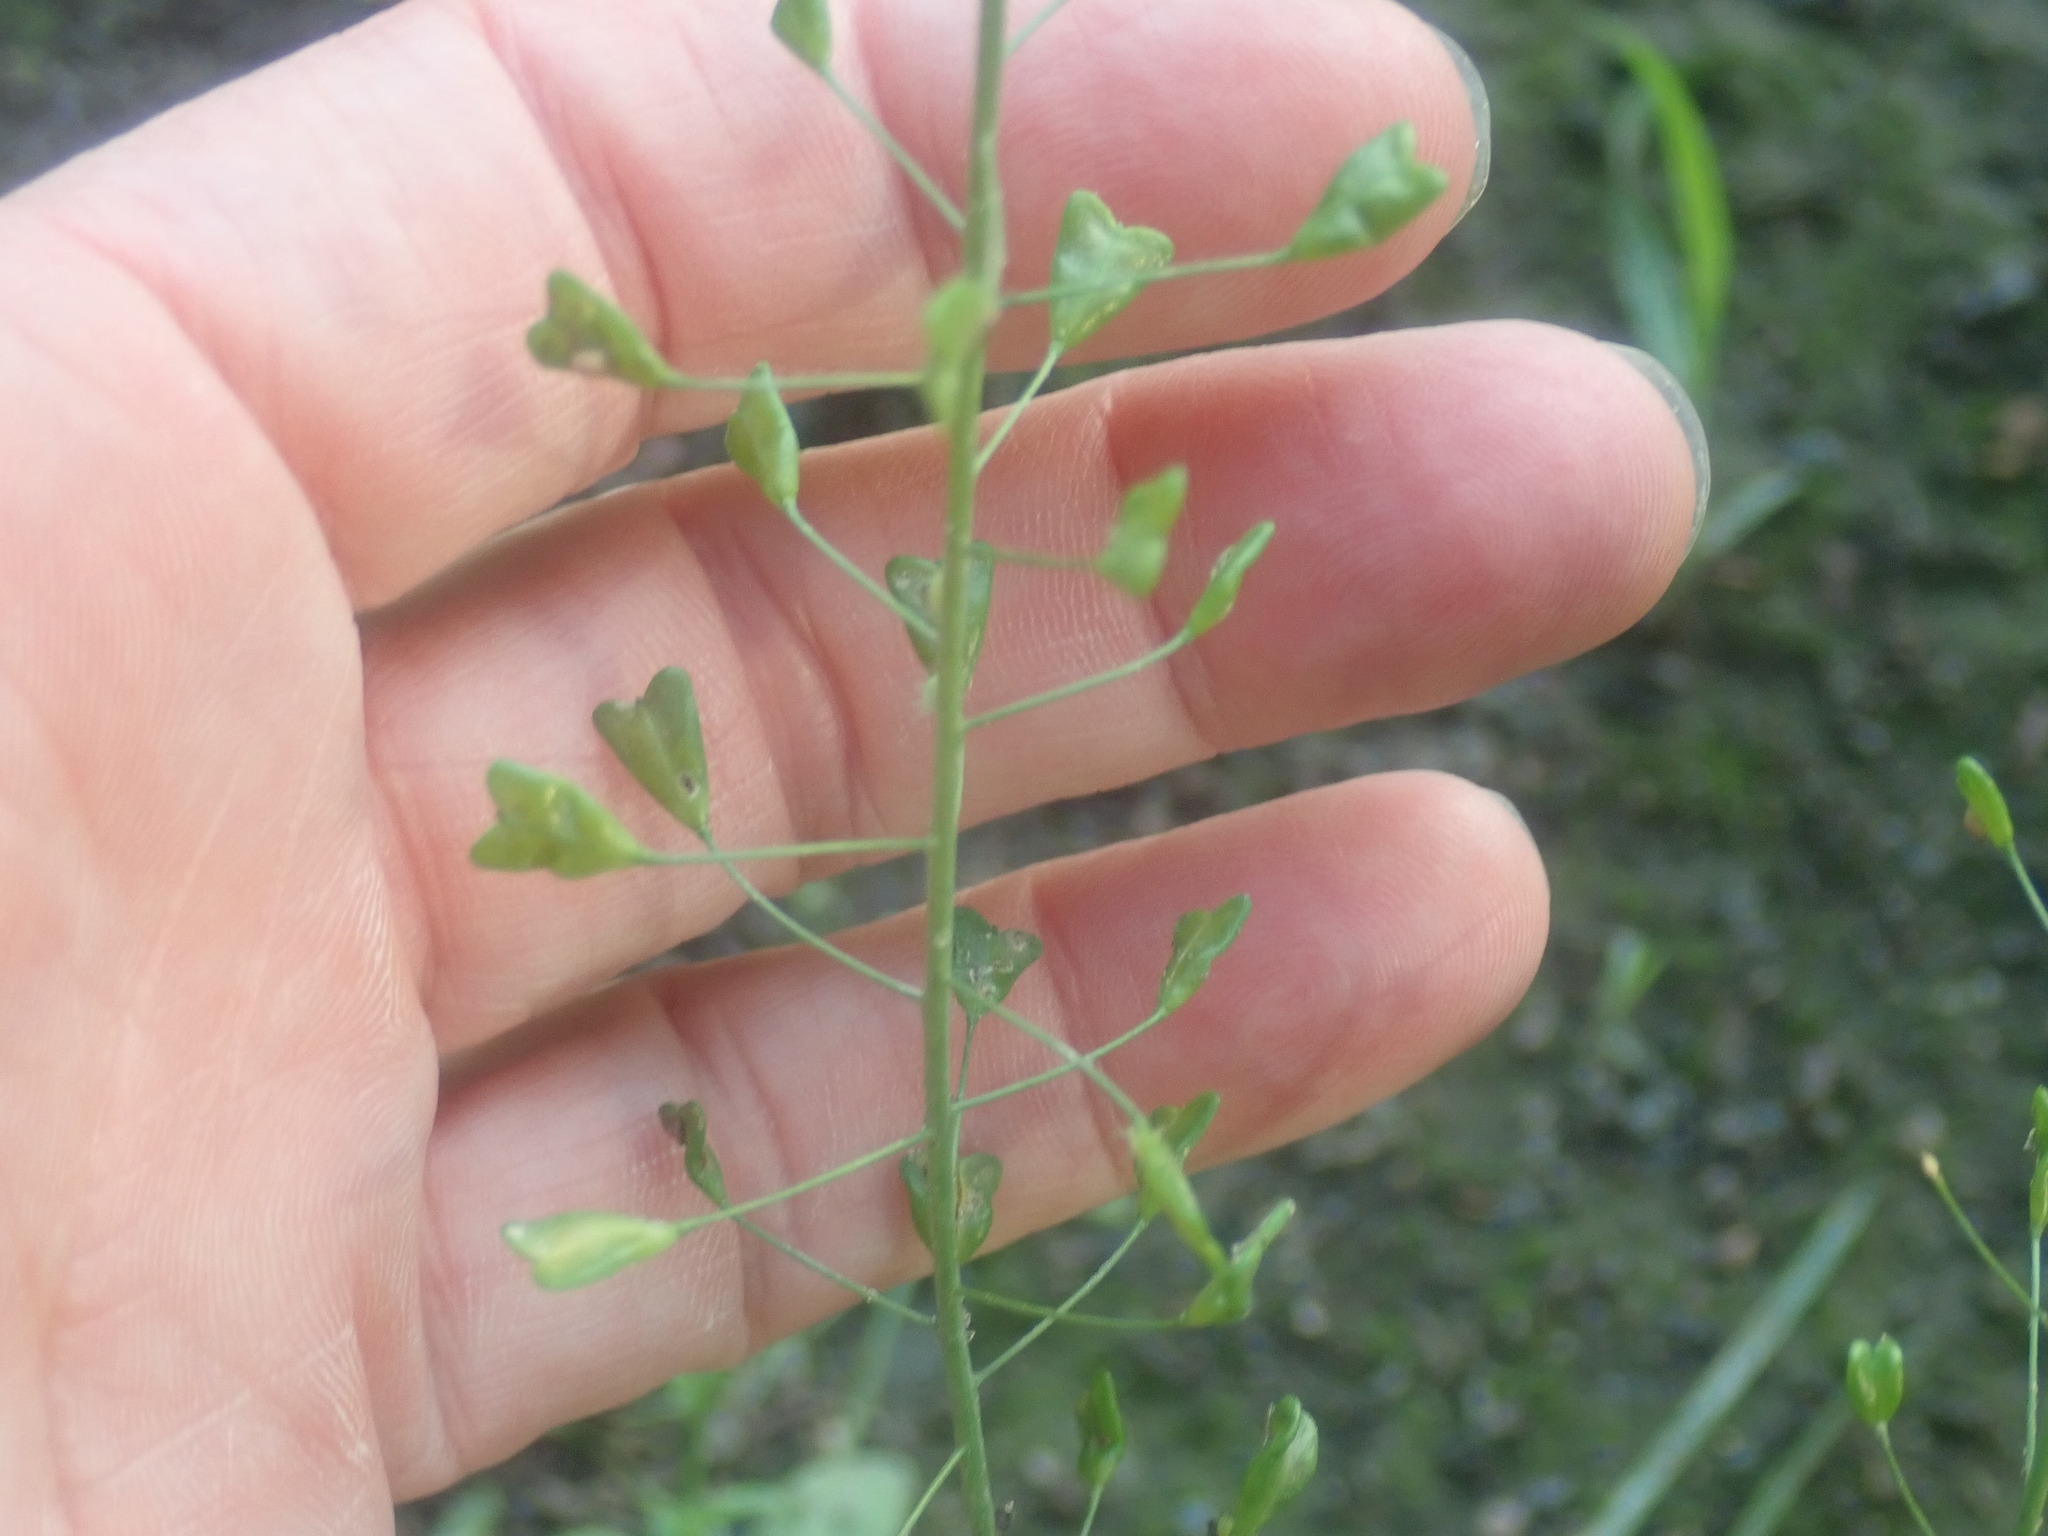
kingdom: Plantae
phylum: Tracheophyta
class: Magnoliopsida
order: Brassicales
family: Brassicaceae
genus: Capsella
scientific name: Capsella bursa-pastoris
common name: Shepherd's purse
